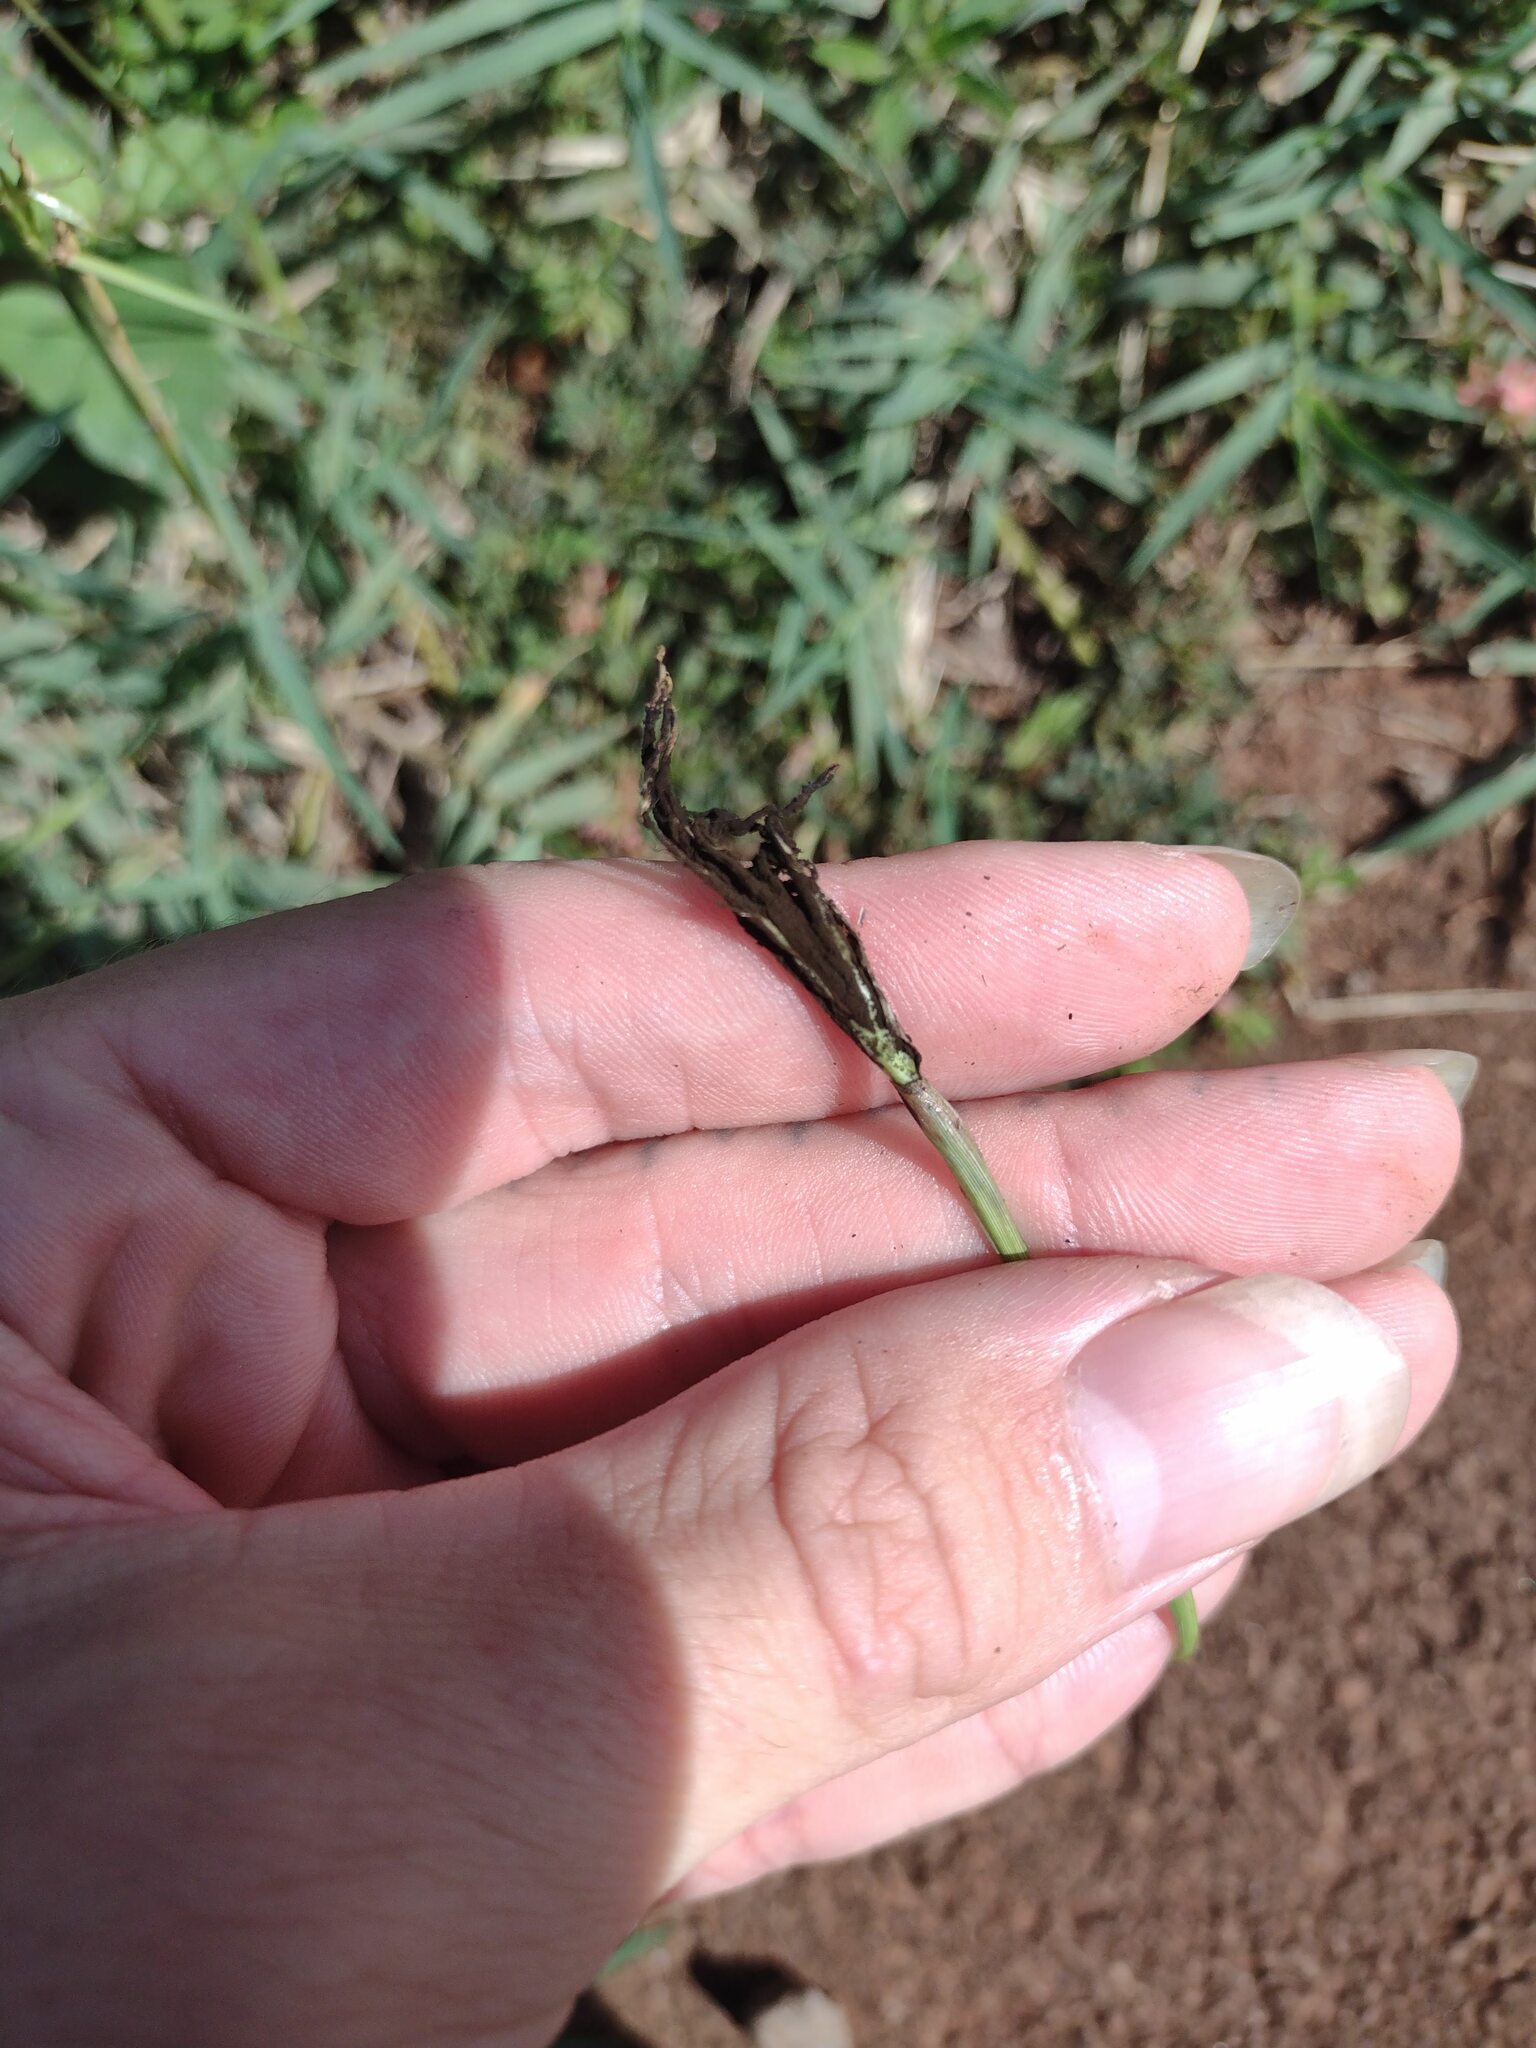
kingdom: Fungi
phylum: Basidiomycota
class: Ustilaginomycetes
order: Ustilaginales
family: Ustilaginaceae
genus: Ustilago
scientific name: Ustilago cynodontis
